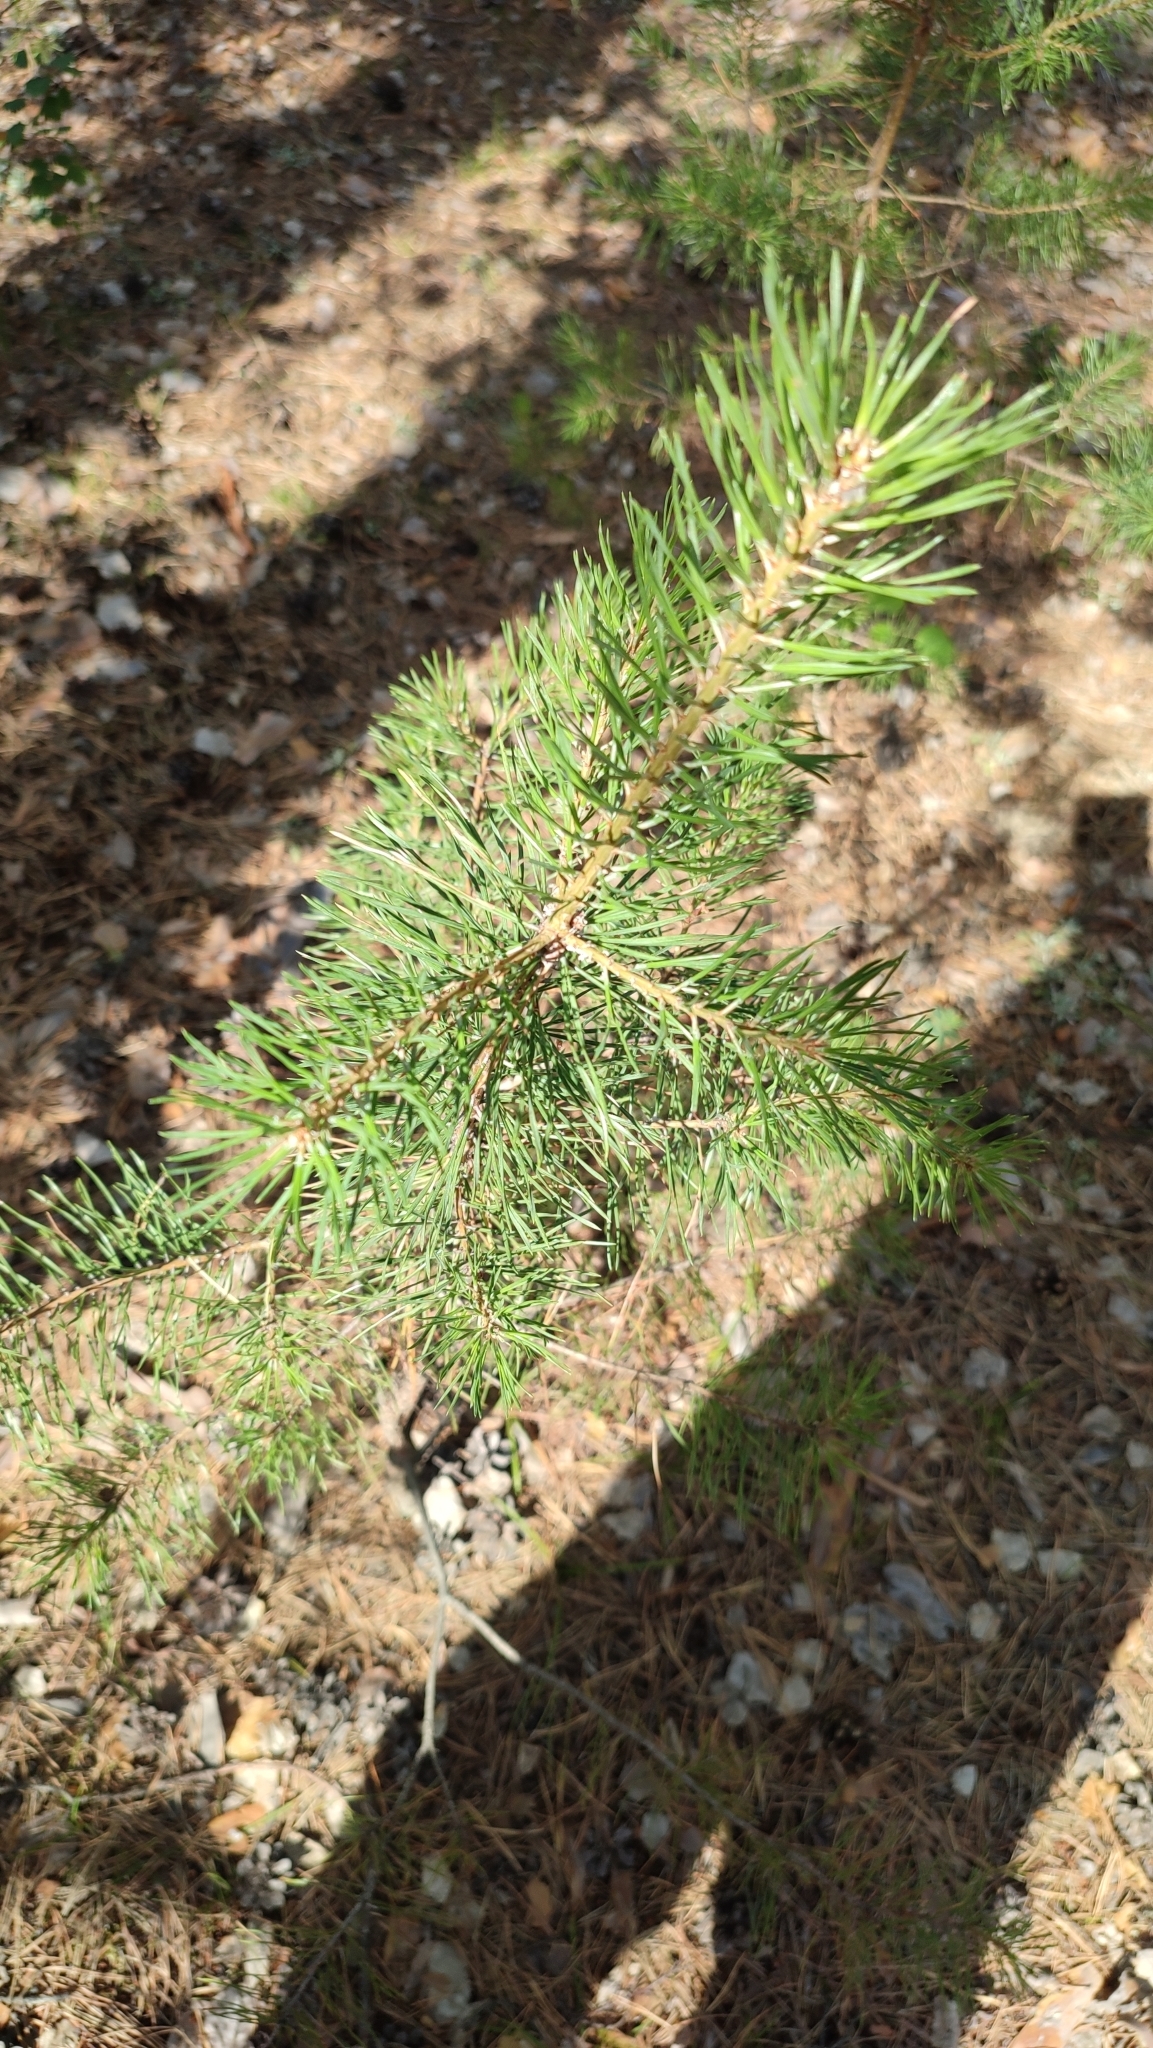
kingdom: Plantae
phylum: Tracheophyta
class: Pinopsida
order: Pinales
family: Pinaceae
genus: Pinus
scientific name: Pinus sylvestris
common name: Scots pine
